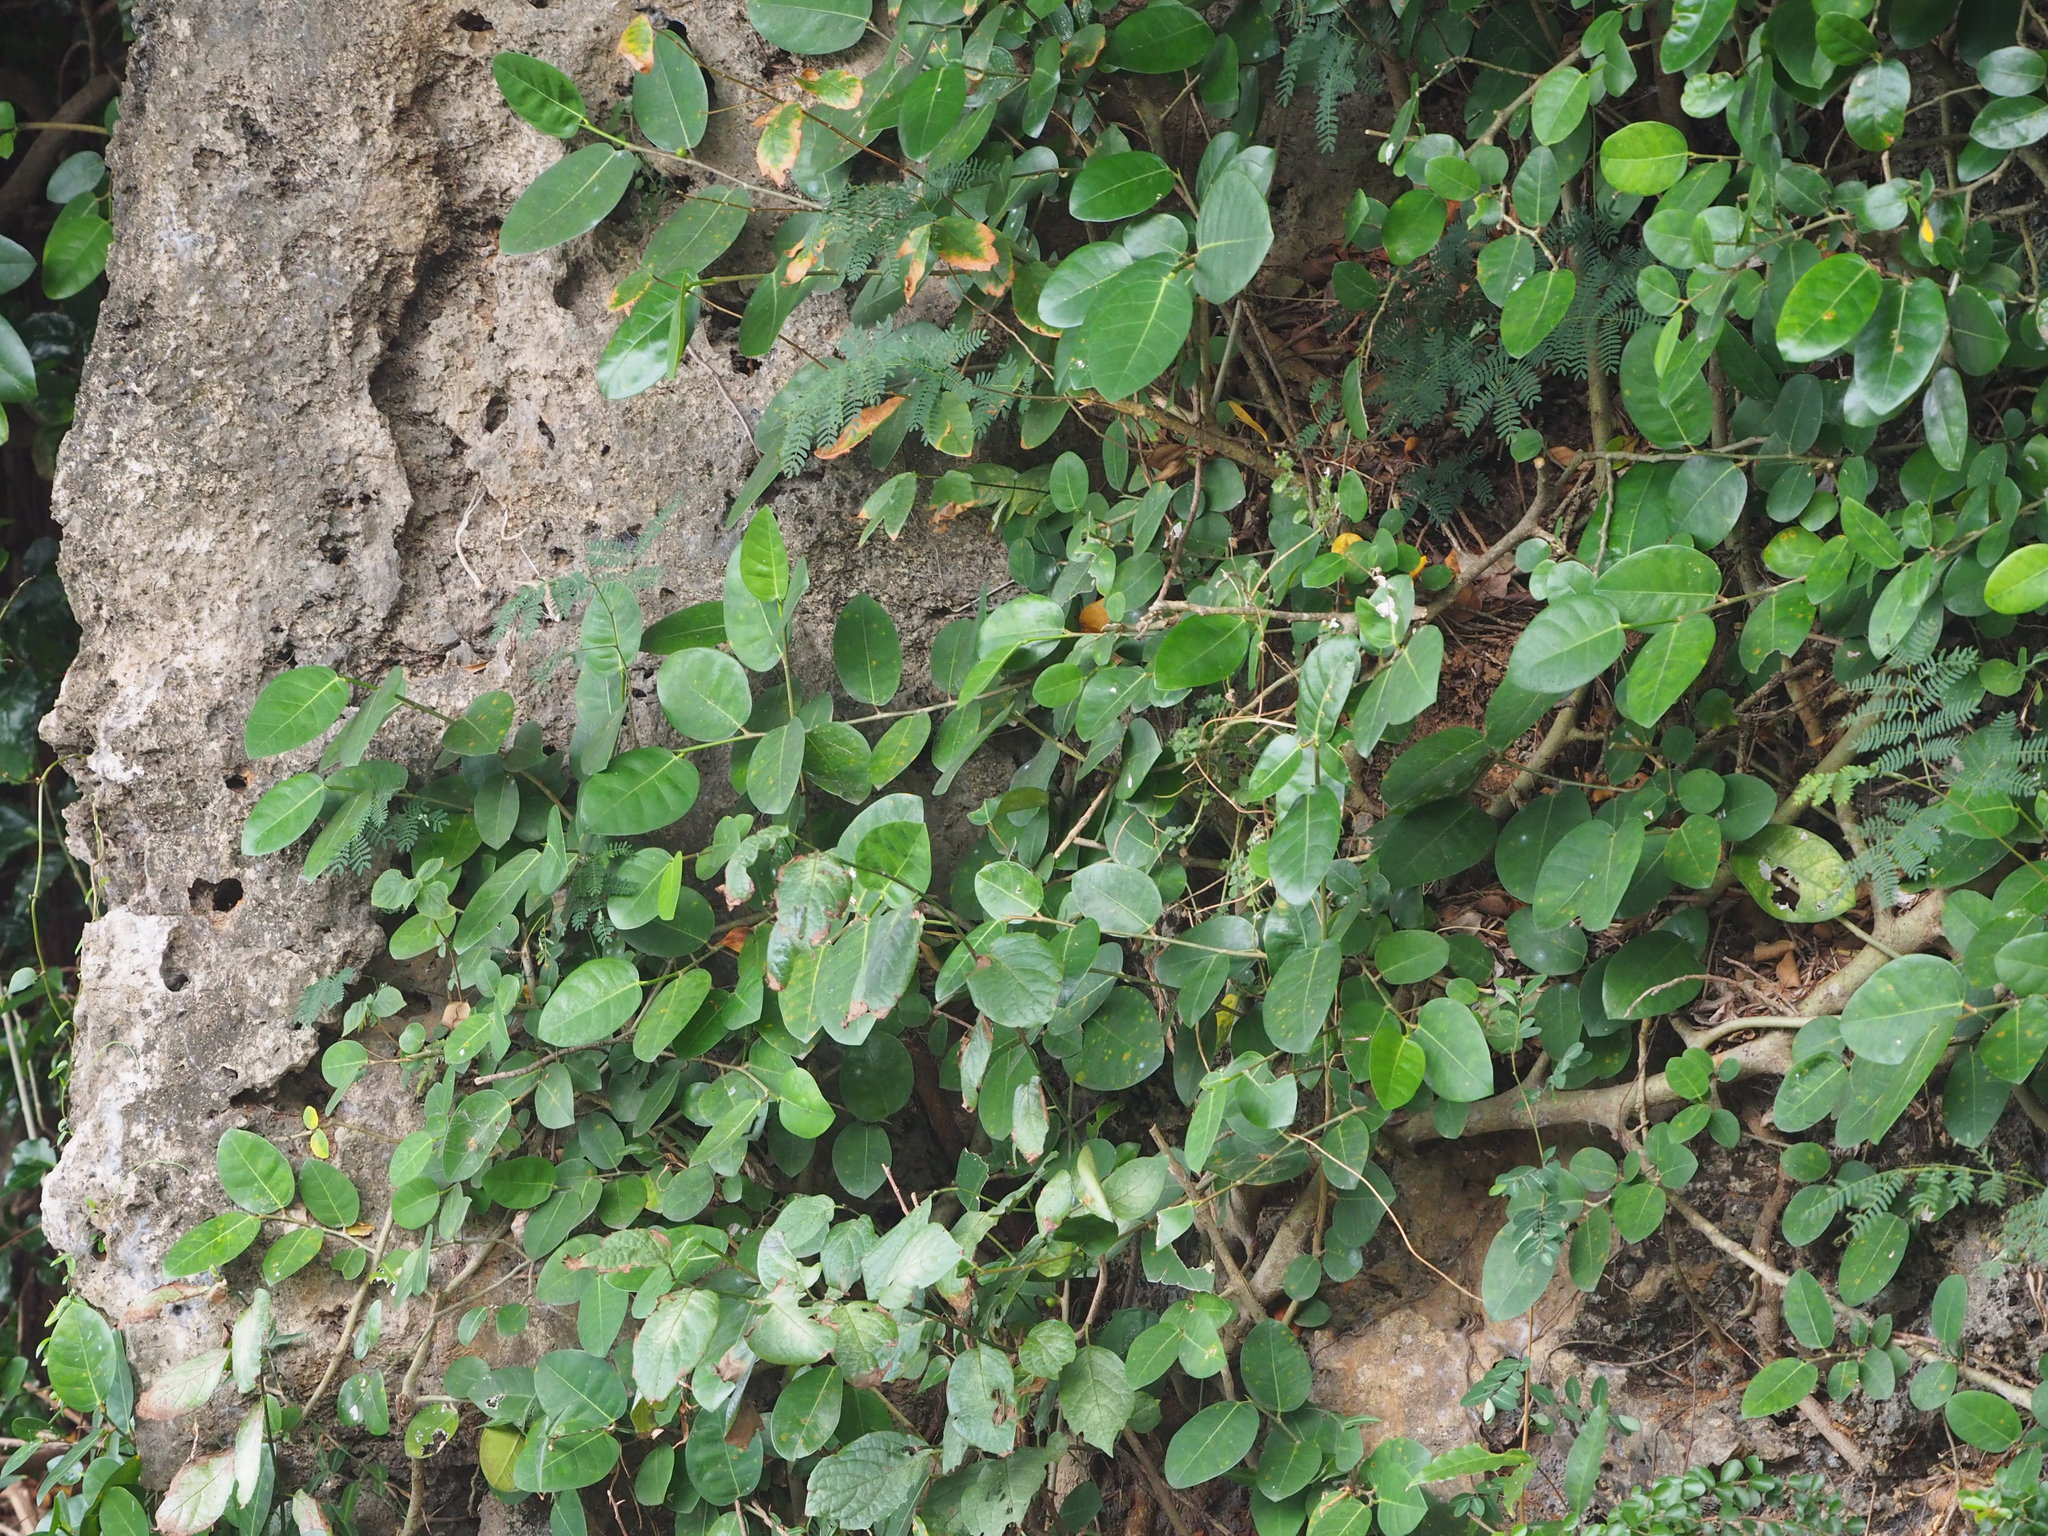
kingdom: Plantae
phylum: Tracheophyta
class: Magnoliopsida
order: Rosales
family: Moraceae
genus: Ficus
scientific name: Ficus tinctoria
